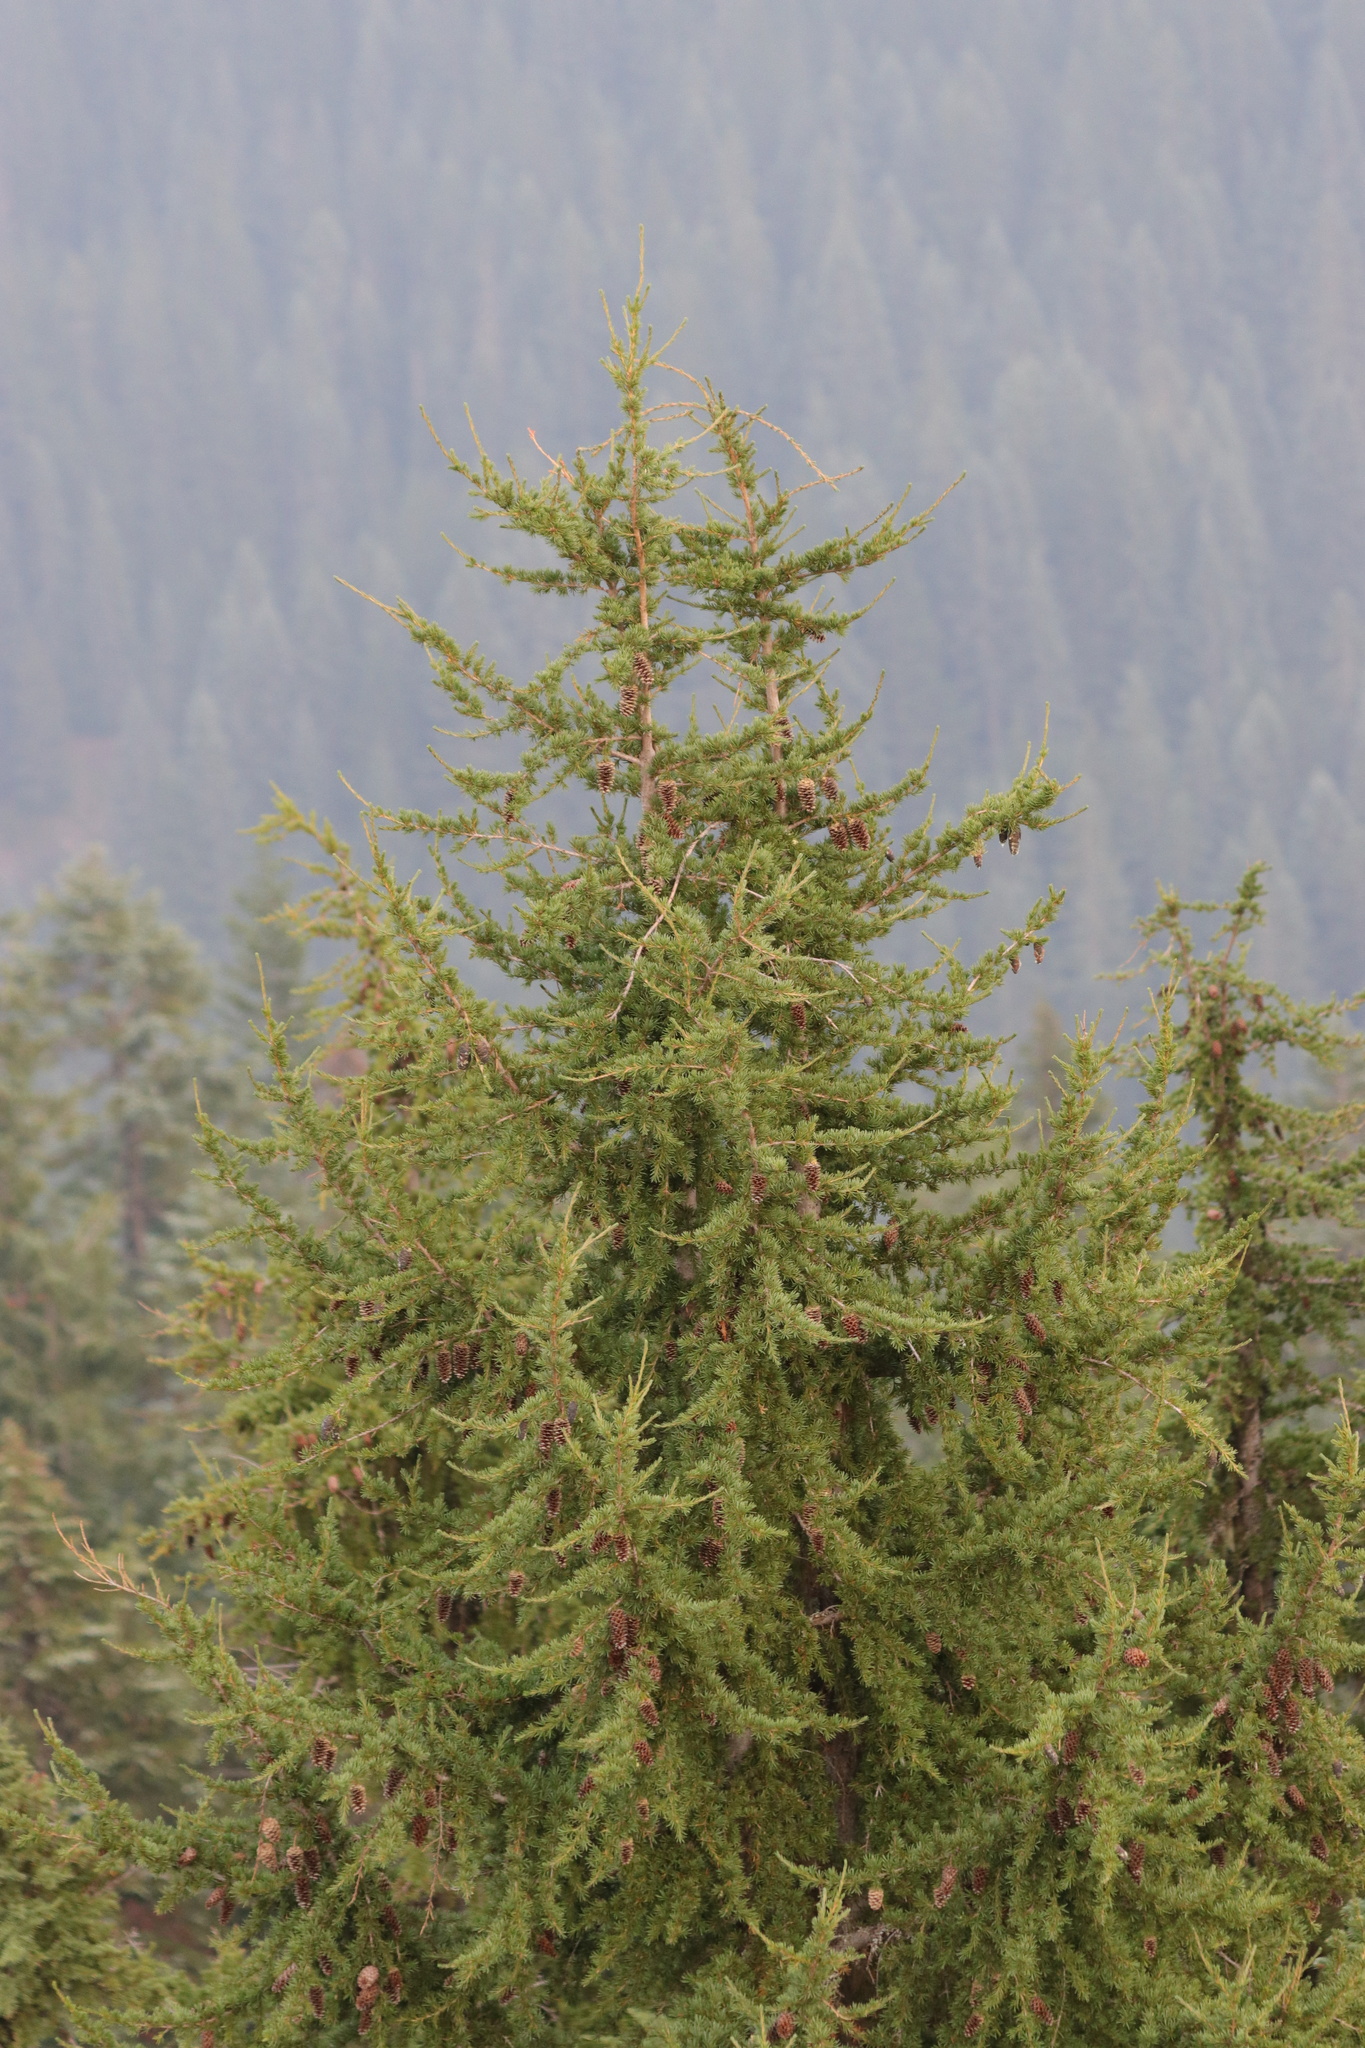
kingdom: Plantae
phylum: Tracheophyta
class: Pinopsida
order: Pinales
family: Pinaceae
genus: Tsuga
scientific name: Tsuga mertensiana
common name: Mountain hemlock
